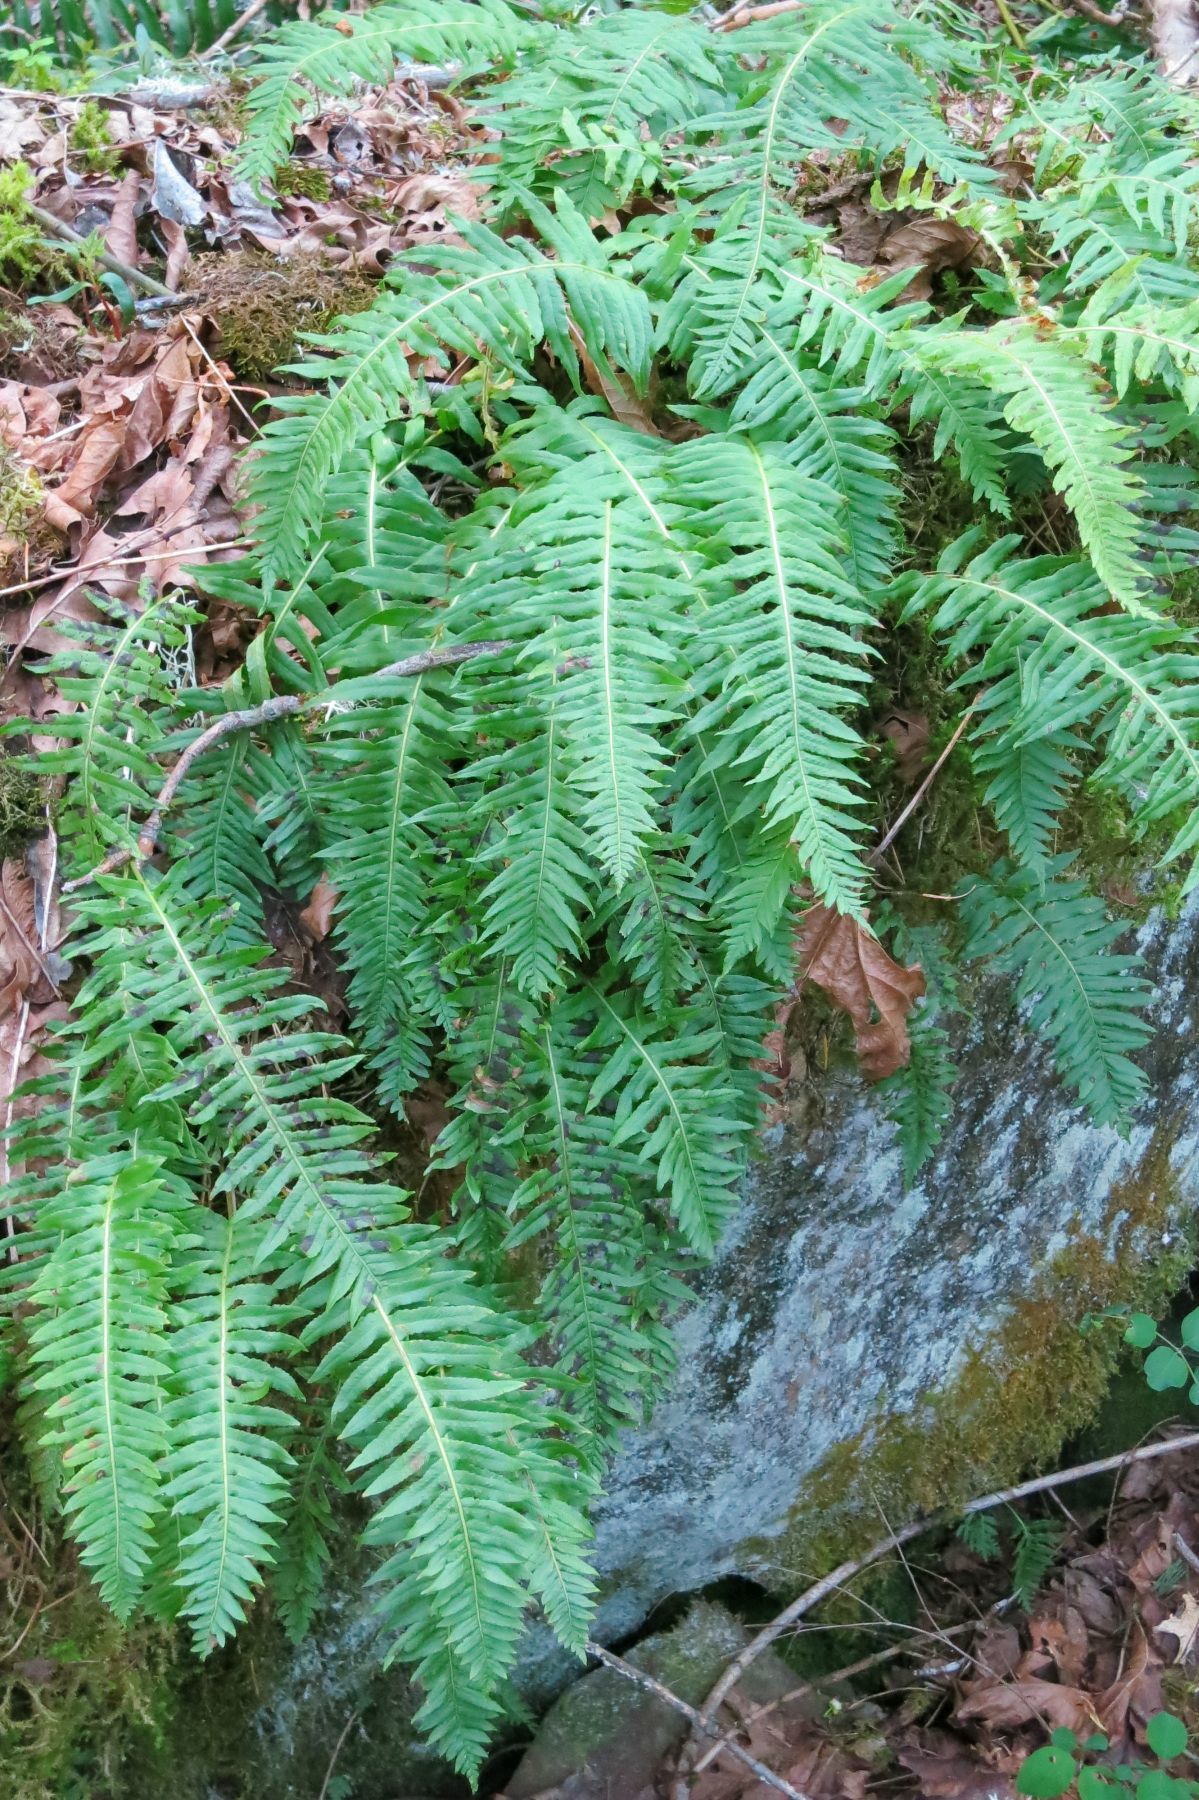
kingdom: Plantae
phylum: Tracheophyta
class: Polypodiopsida
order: Polypodiales
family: Polypodiaceae
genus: Polypodium
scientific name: Polypodium glycyrrhiza
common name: Licorice fern
